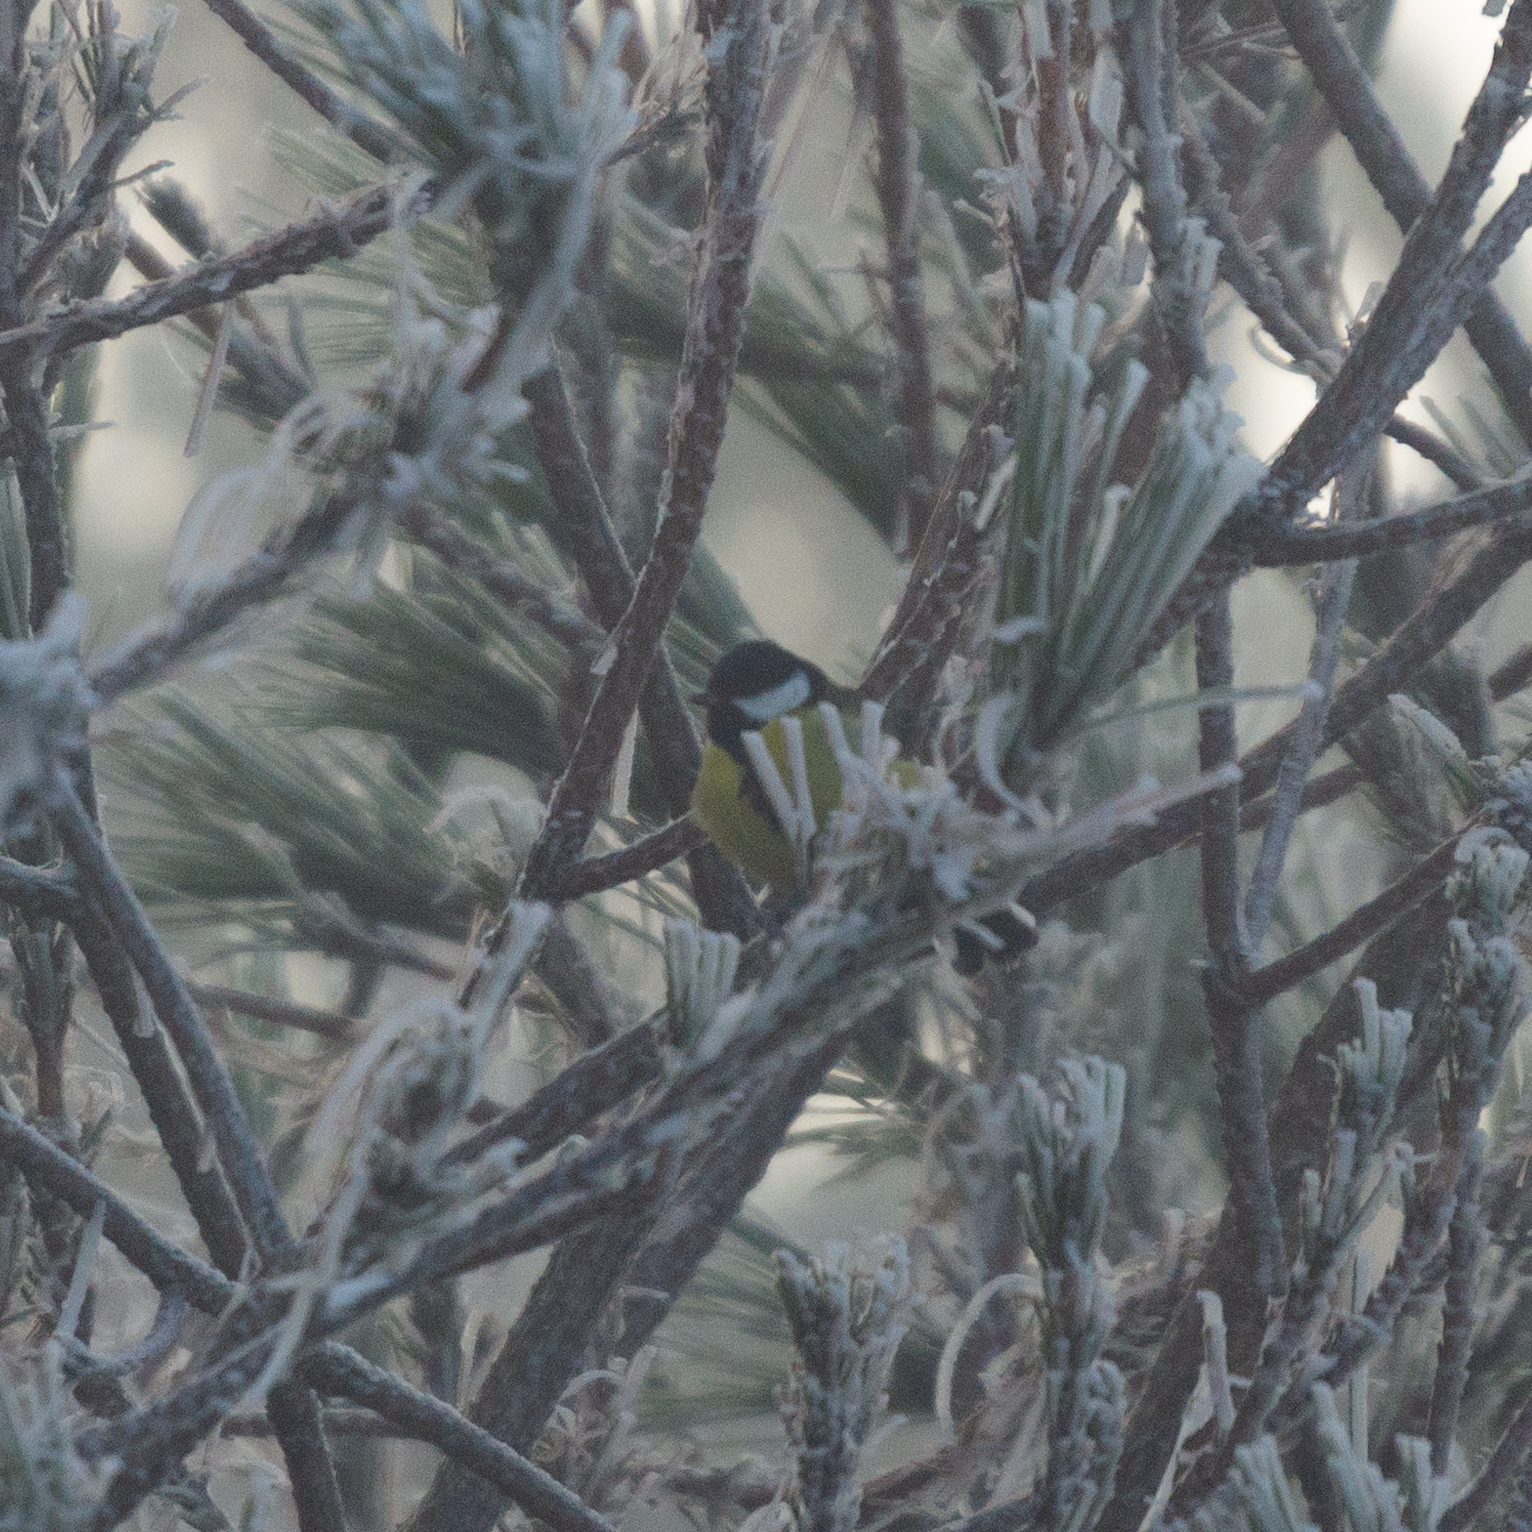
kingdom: Animalia
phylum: Chordata
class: Aves
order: Passeriformes
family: Paridae
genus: Parus
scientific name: Parus major
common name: Great tit
